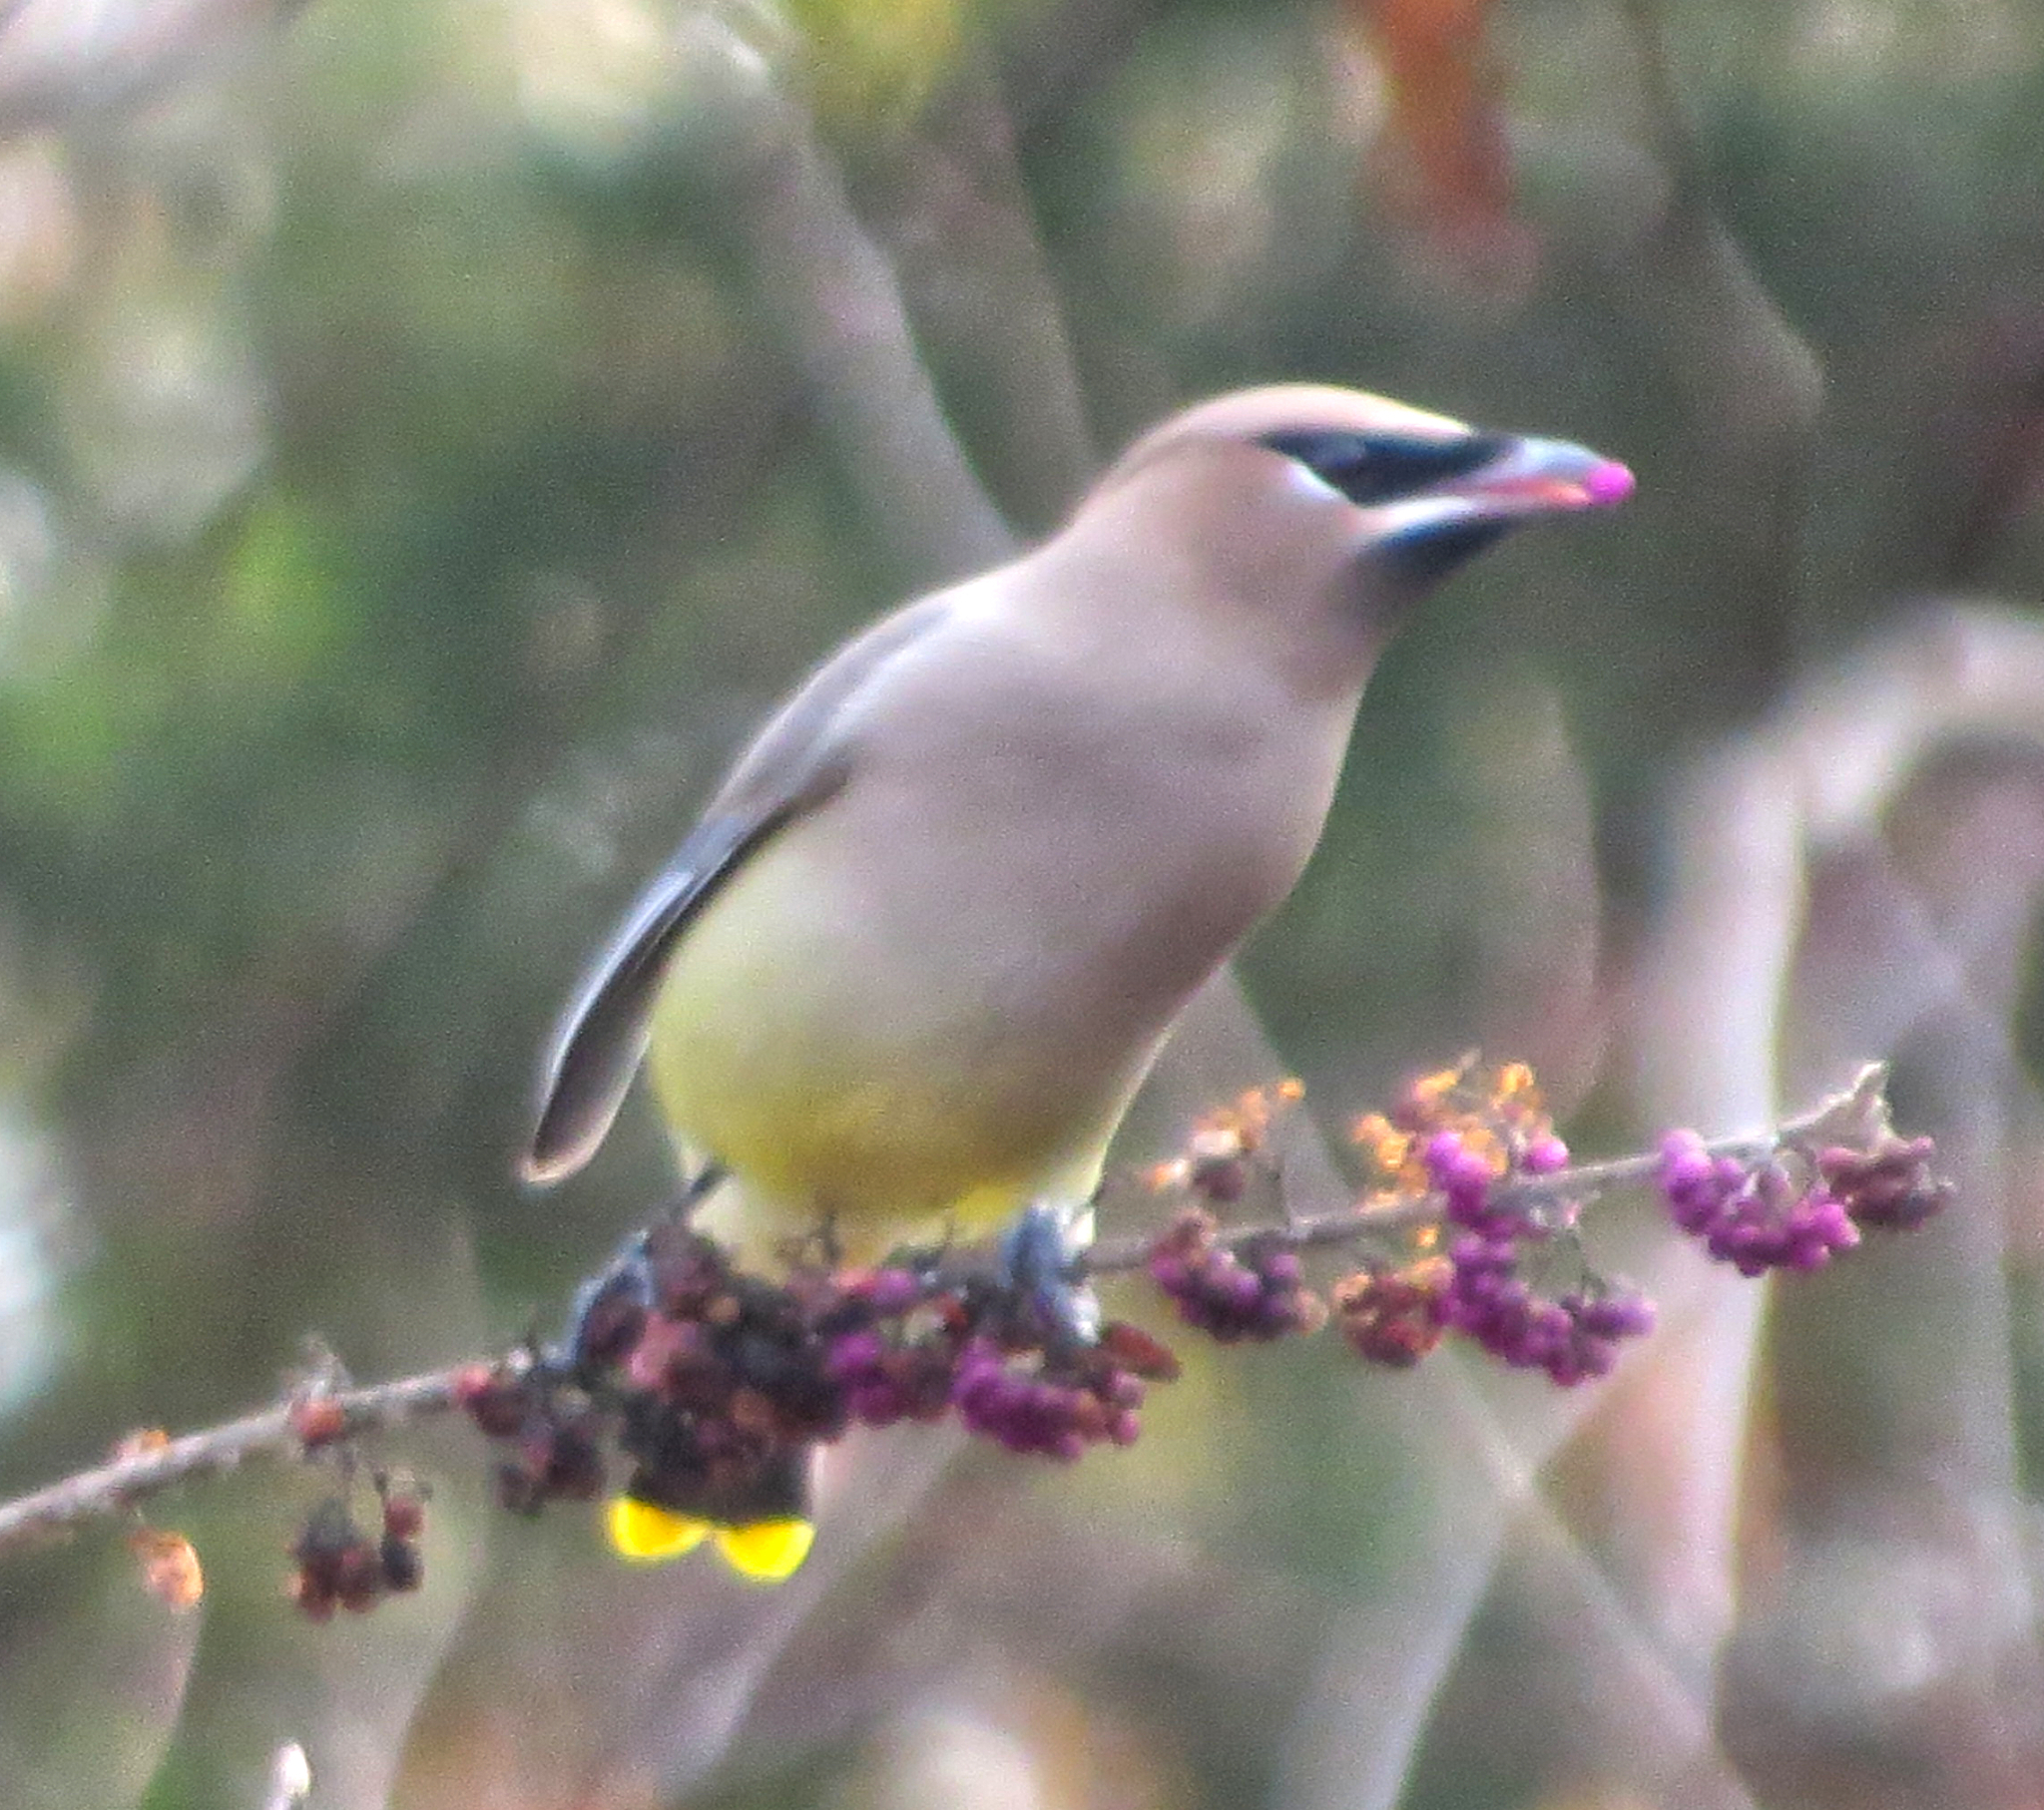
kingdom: Animalia
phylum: Chordata
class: Aves
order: Passeriformes
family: Bombycillidae
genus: Bombycilla
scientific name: Bombycilla cedrorum
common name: Cedar waxwing
